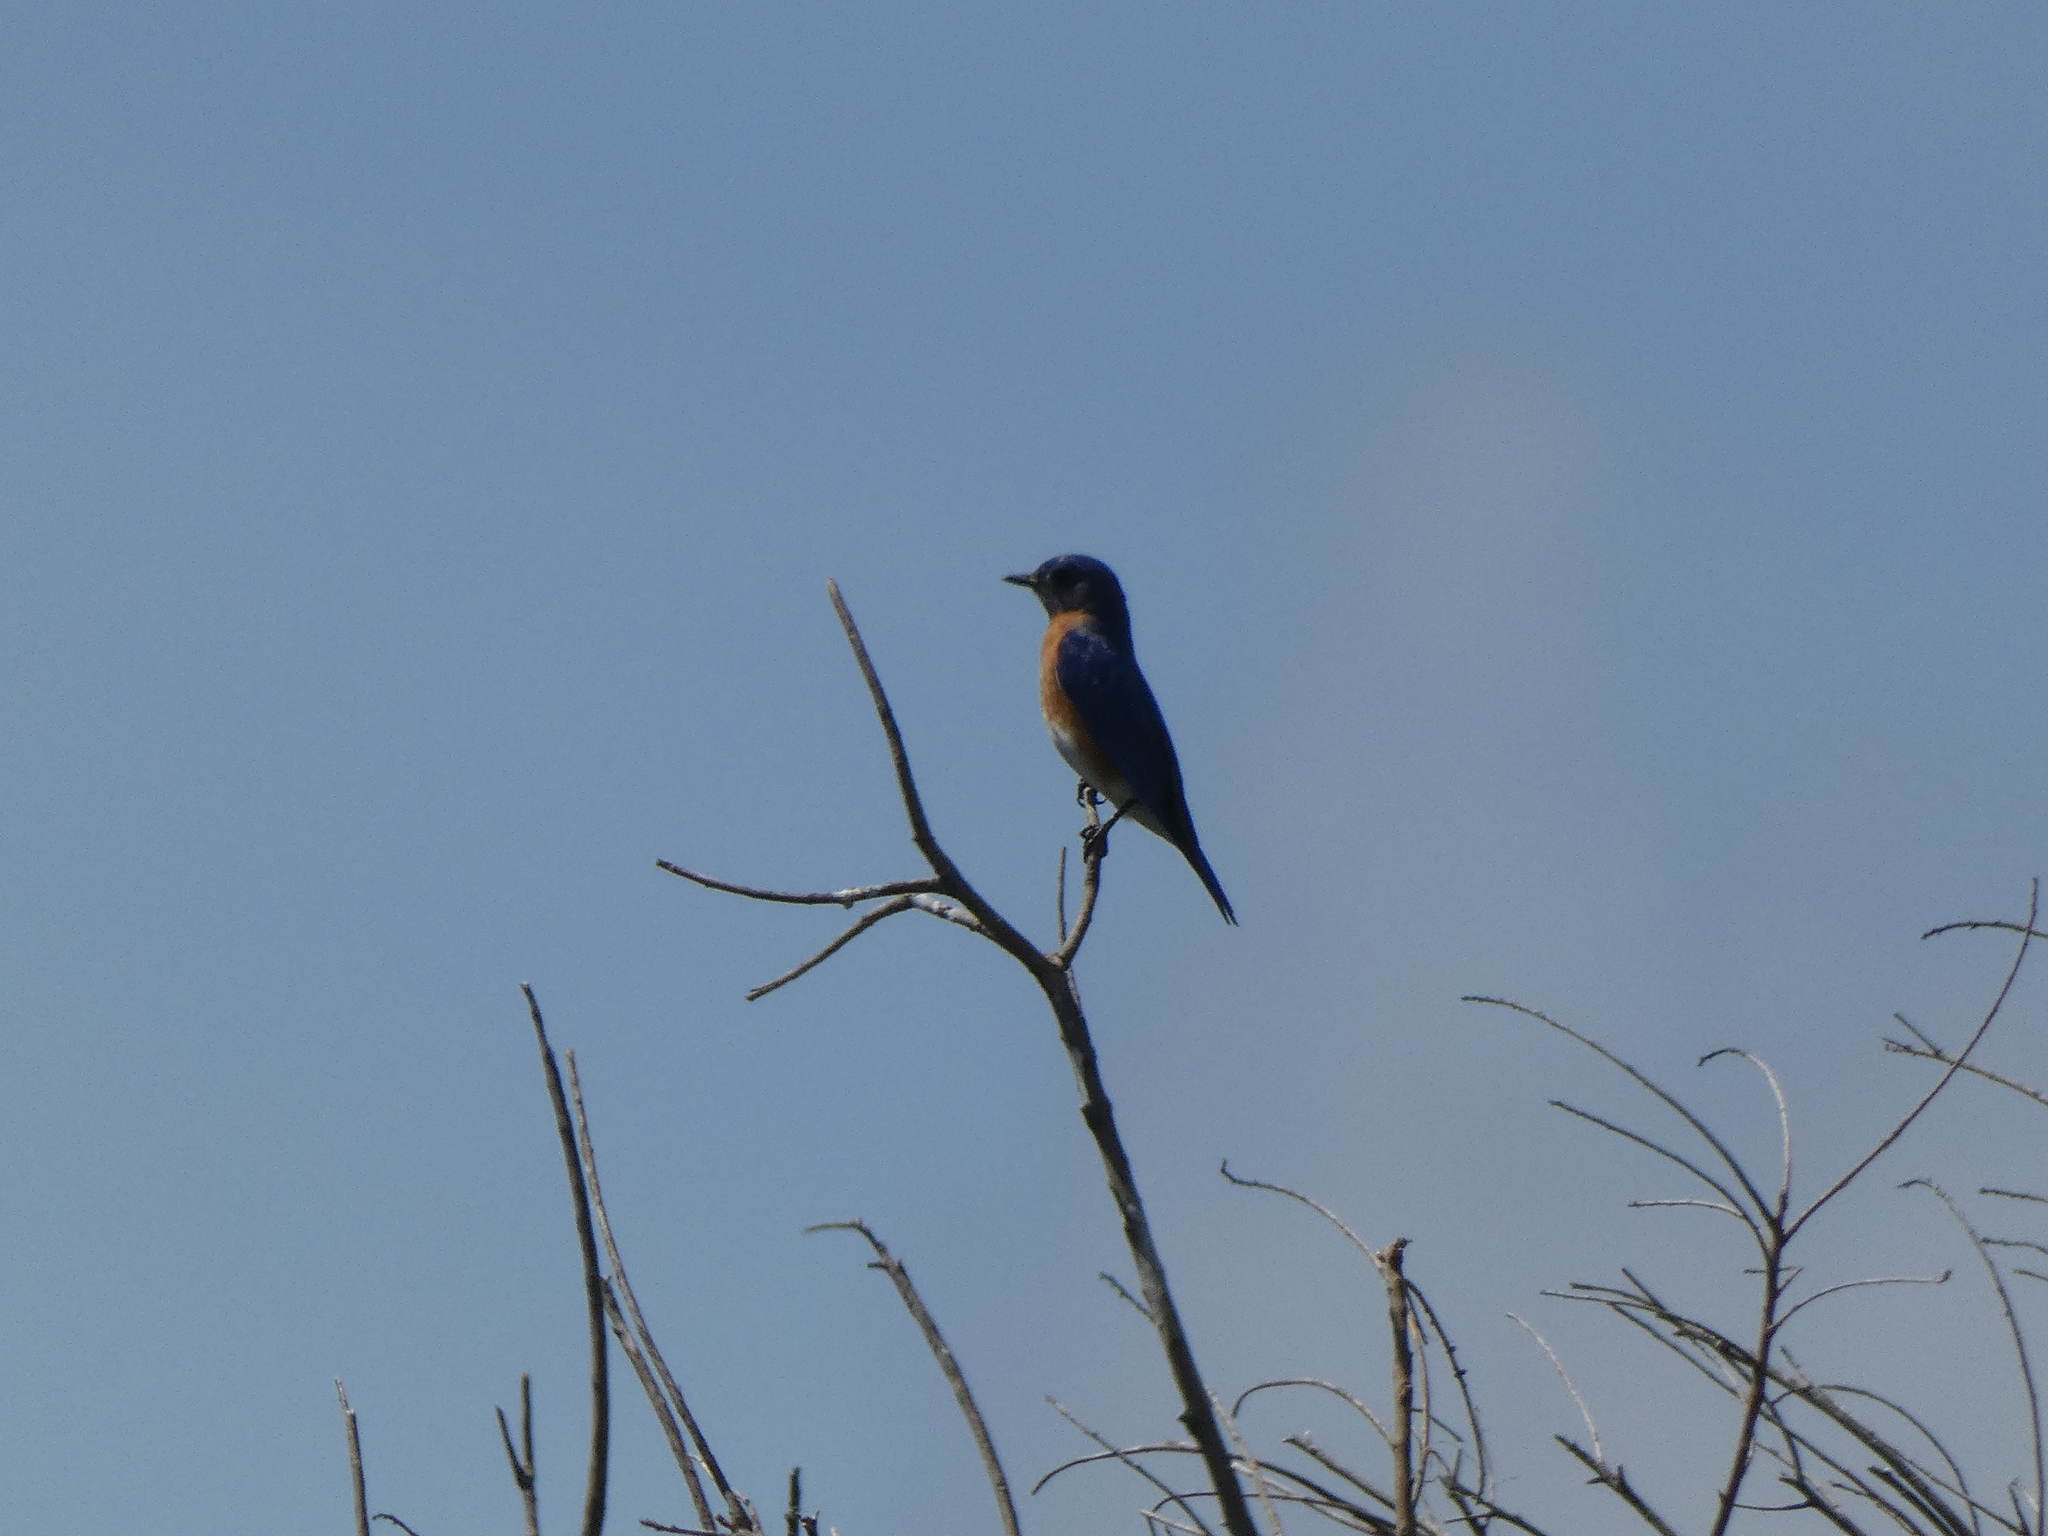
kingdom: Animalia
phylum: Chordata
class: Aves
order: Passeriformes
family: Turdidae
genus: Sialia
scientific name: Sialia sialis
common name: Eastern bluebird
